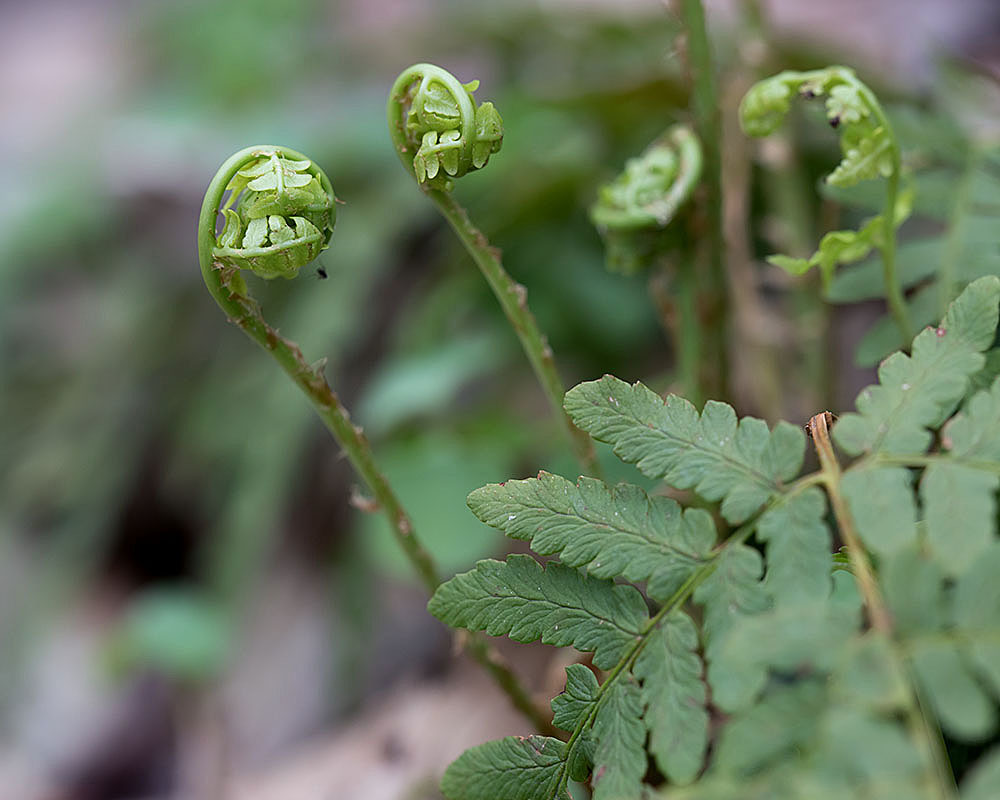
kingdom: Plantae
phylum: Tracheophyta
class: Polypodiopsida
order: Polypodiales
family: Dryopteridaceae
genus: Dryopteris
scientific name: Dryopteris marginalis
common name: Marginal wood fern
